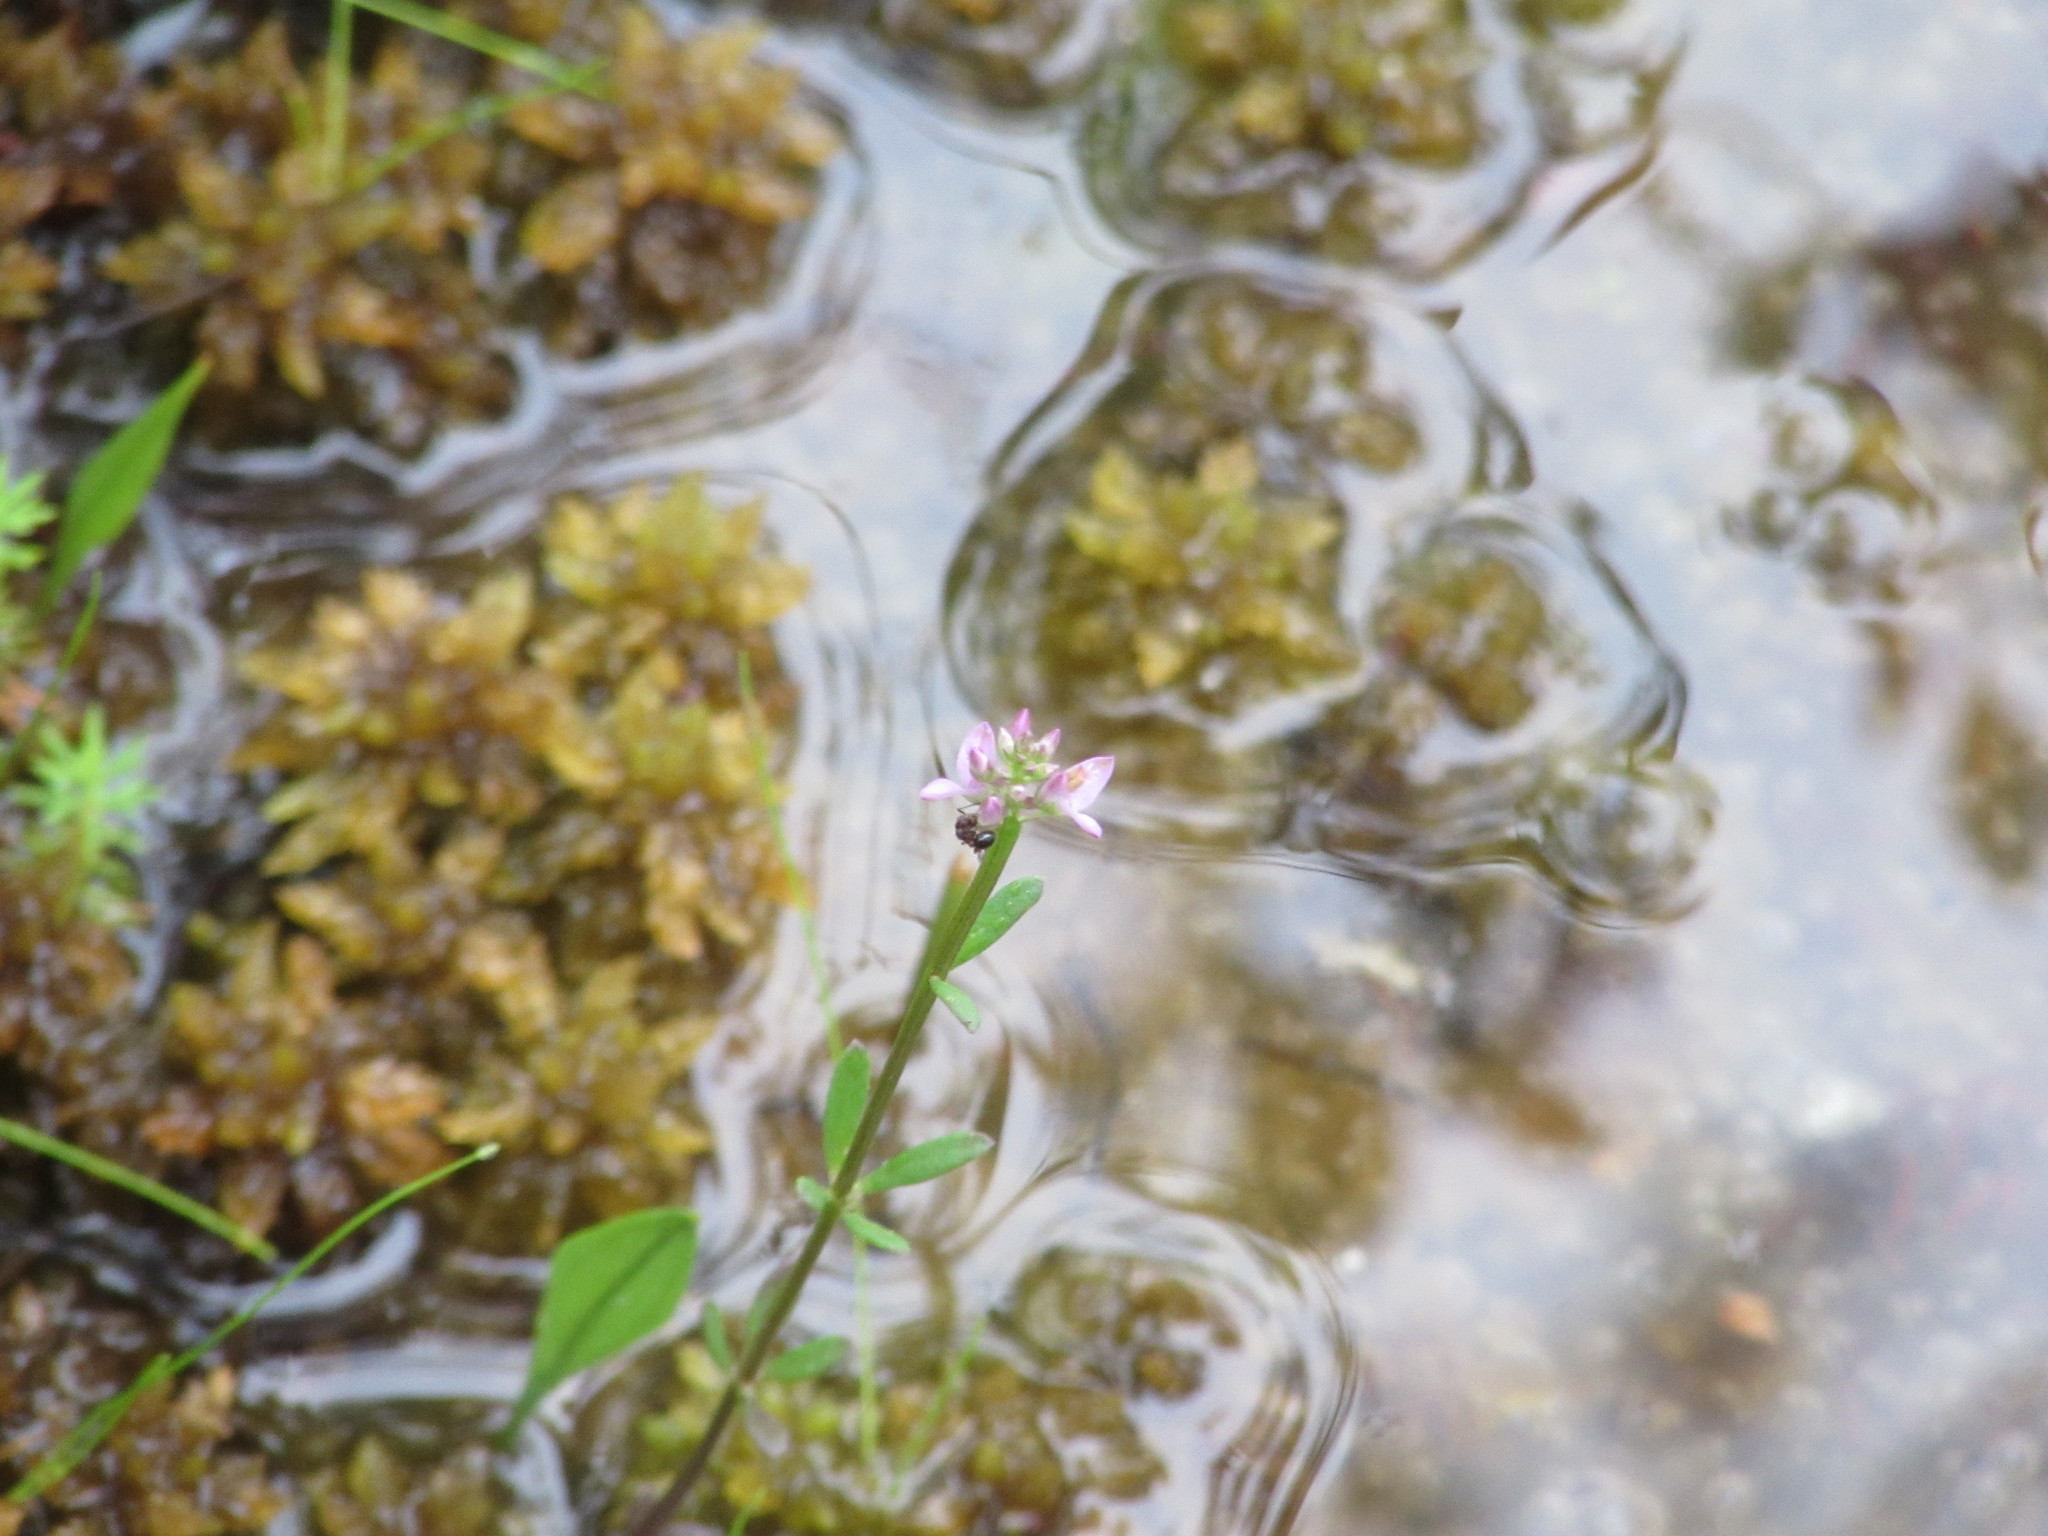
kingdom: Plantae
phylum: Tracheophyta
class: Magnoliopsida
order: Fabales
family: Polygalaceae
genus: Polygala
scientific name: Polygala brevifolia
